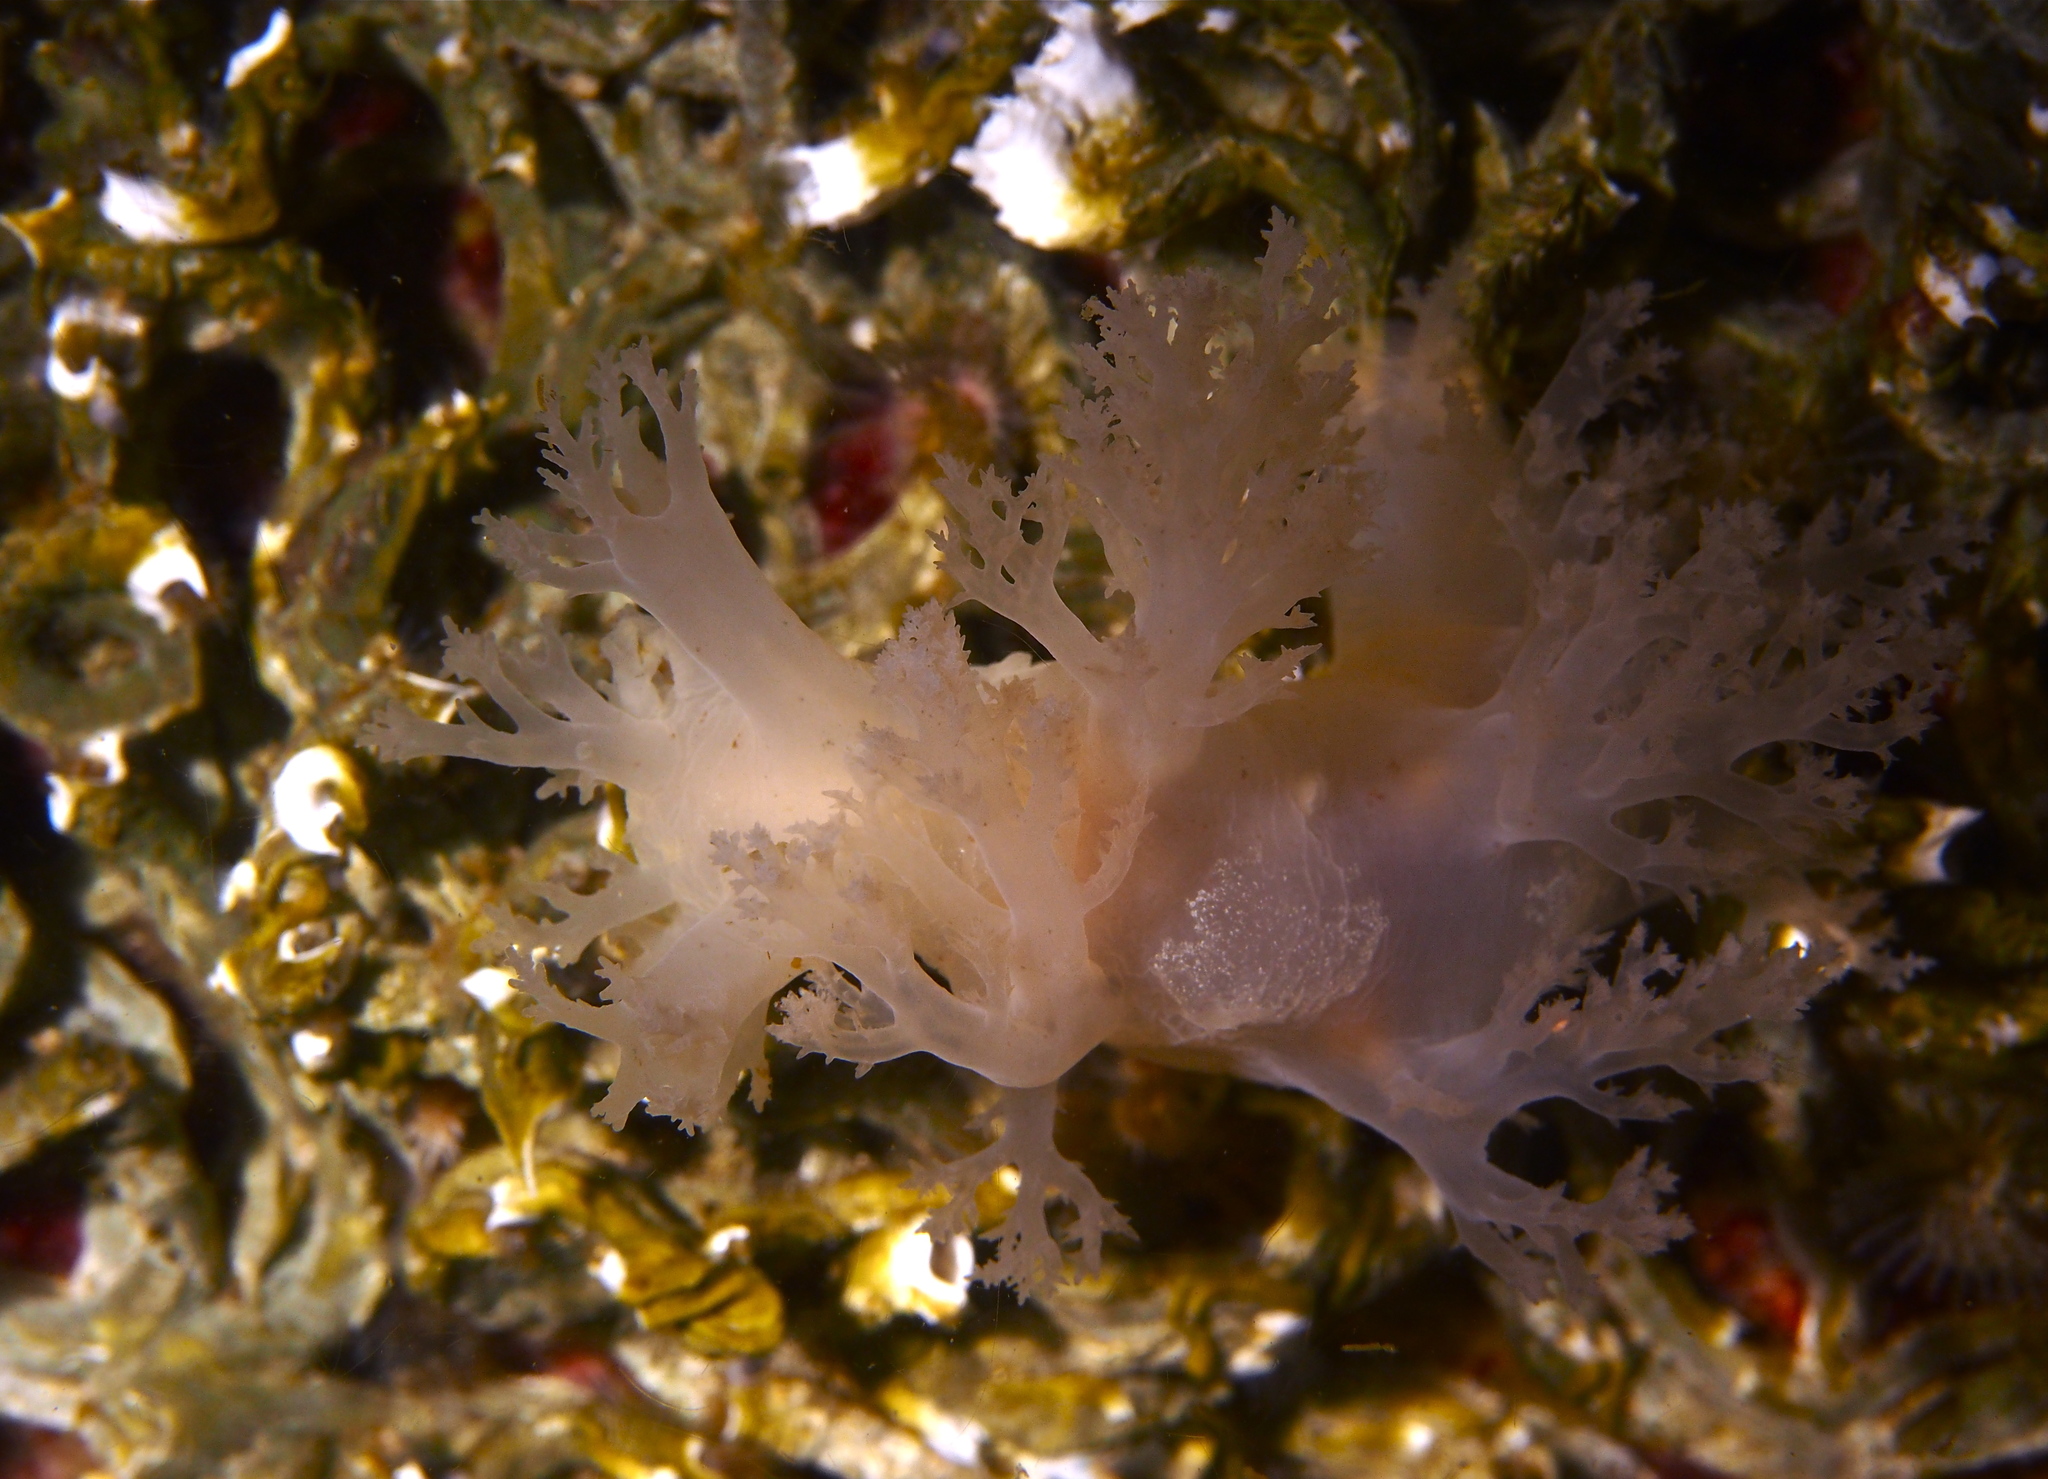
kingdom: Animalia
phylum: Mollusca
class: Gastropoda
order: Nudibranchia
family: Dendronotidae
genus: Dendronotus
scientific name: Dendronotus lacteus
